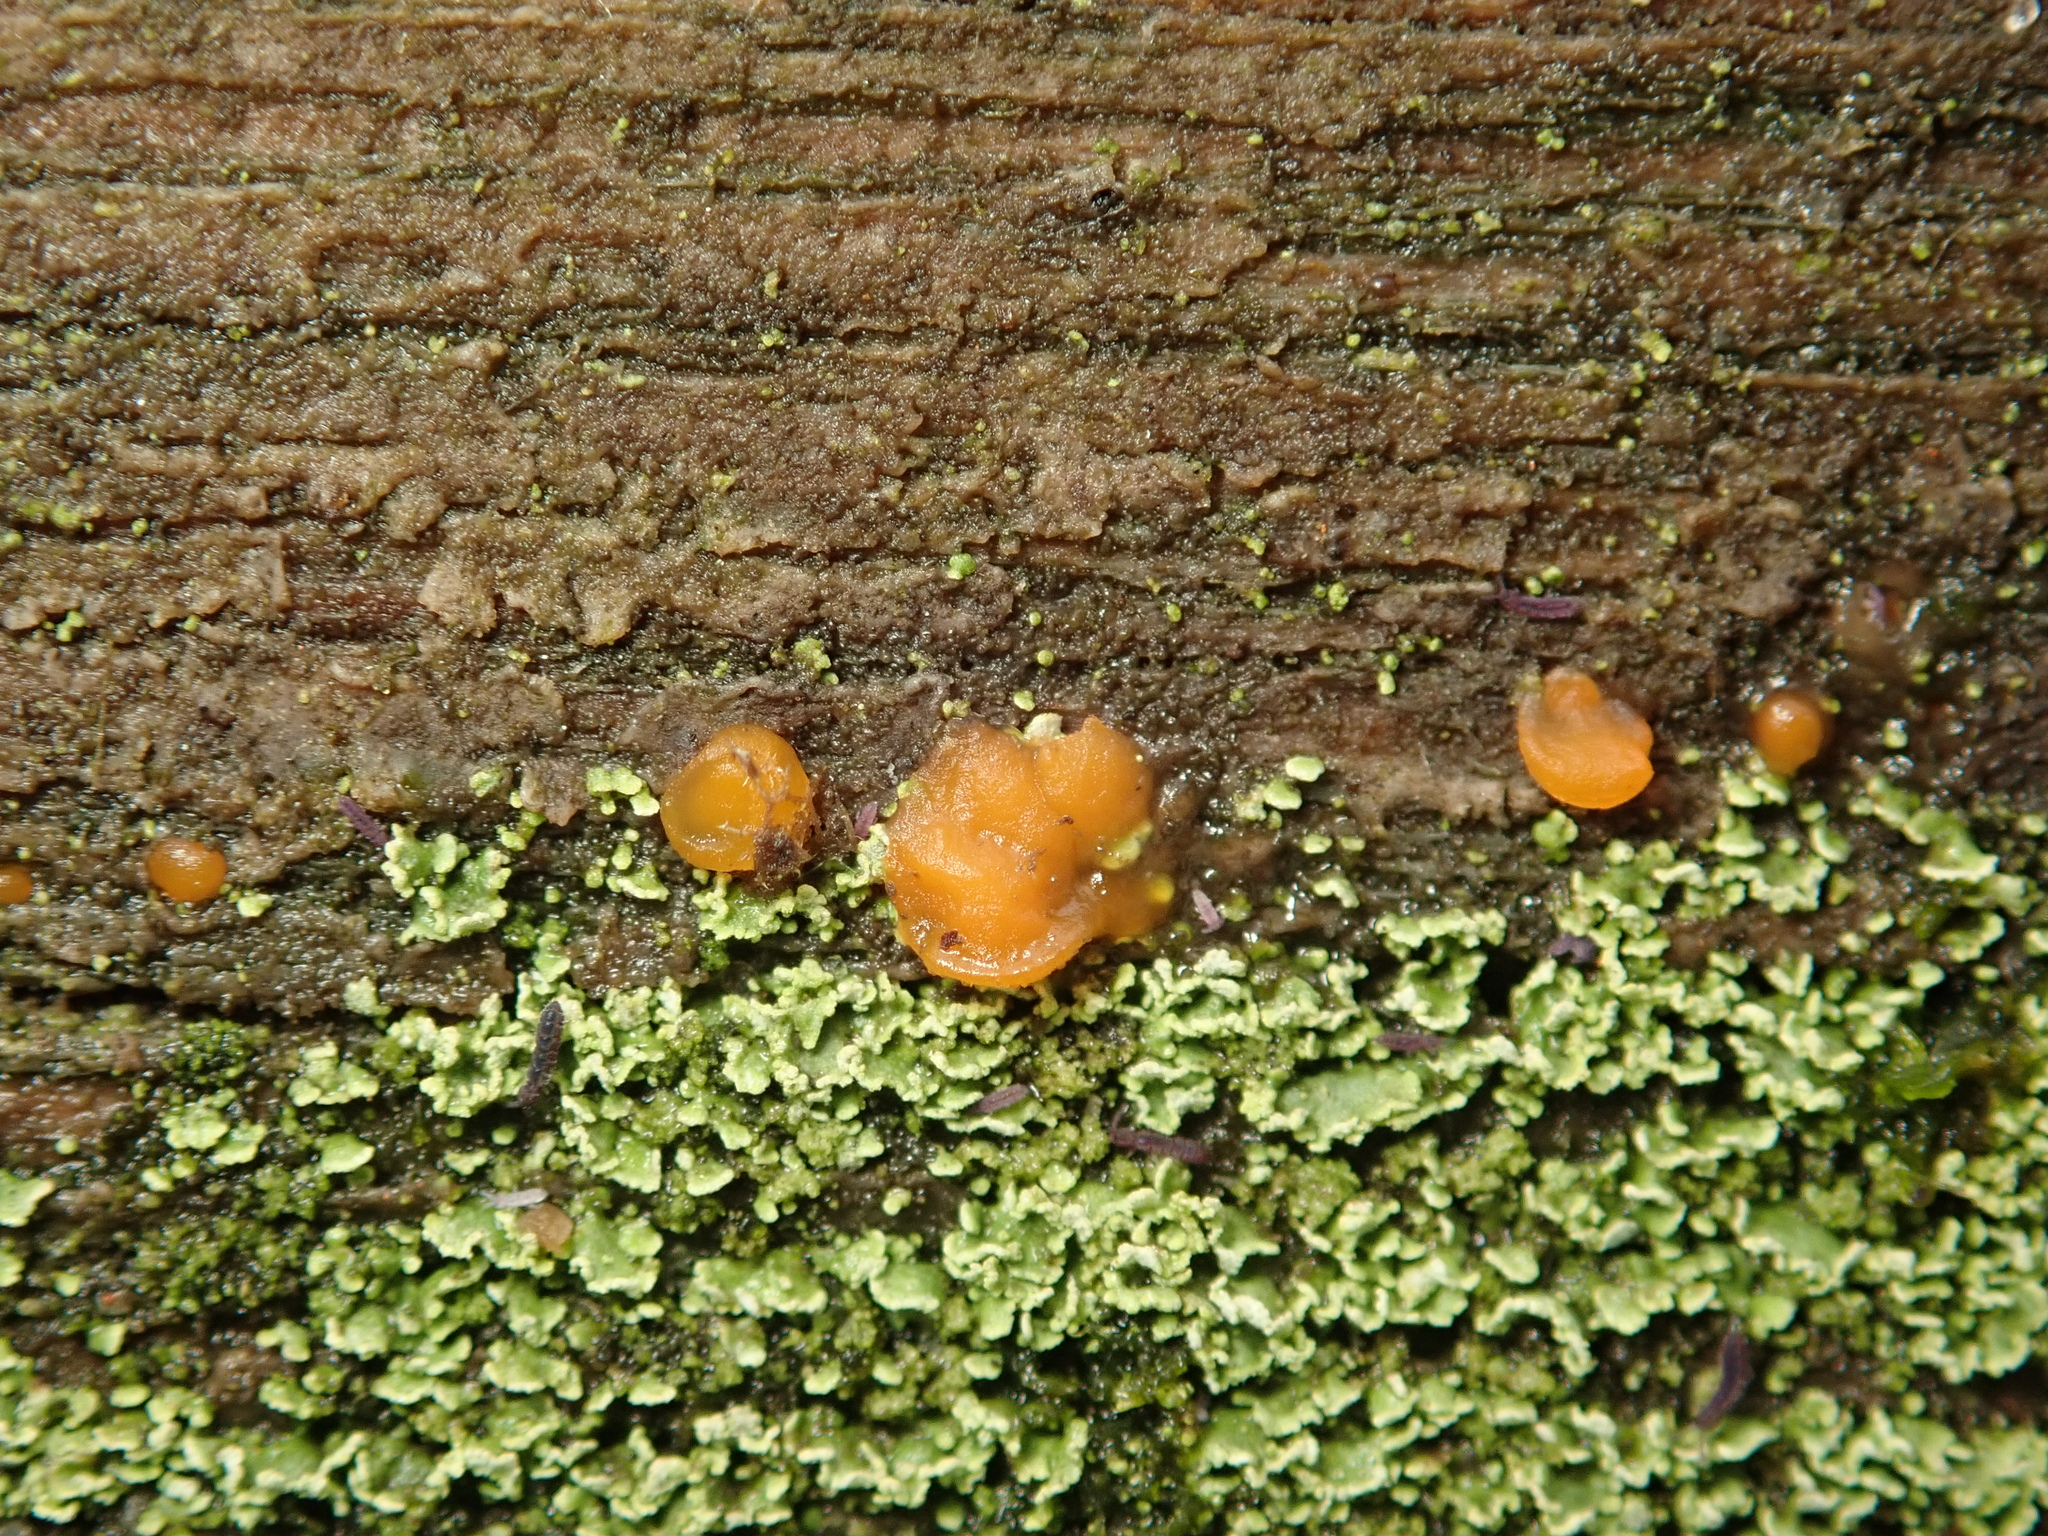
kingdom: Fungi
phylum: Basidiomycota
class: Dacrymycetes
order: Dacrymycetales
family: Dacrymycetaceae
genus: Dacrymyces
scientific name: Dacrymyces stillatus
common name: Common jelly spot
